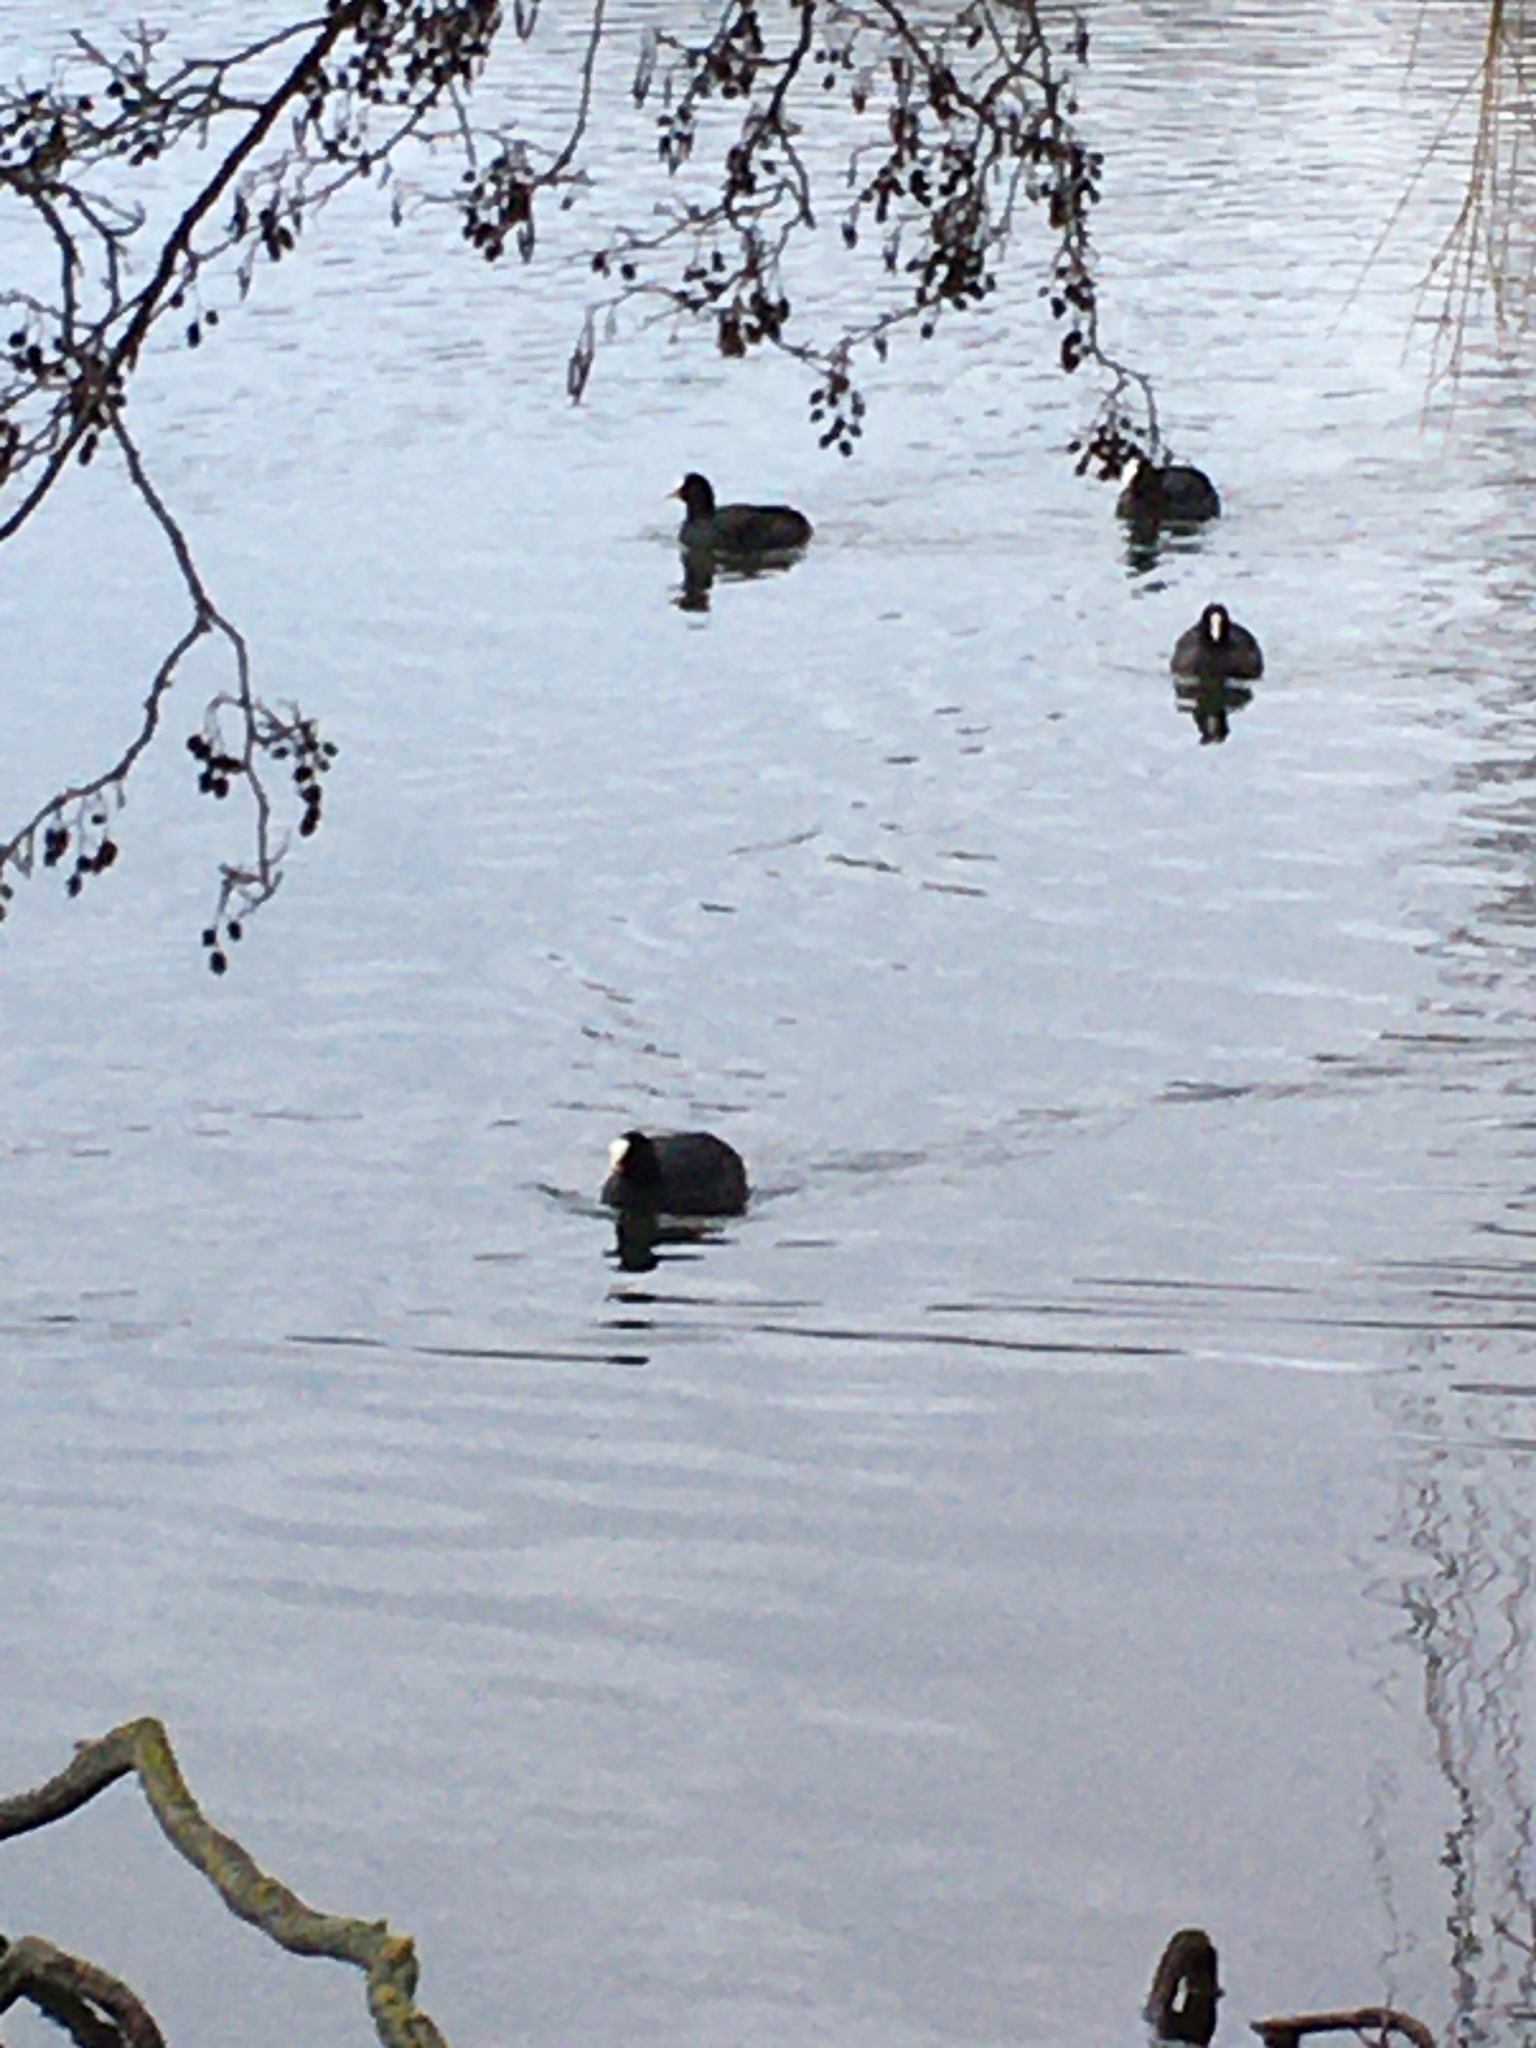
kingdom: Animalia
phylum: Chordata
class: Aves
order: Gruiformes
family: Rallidae
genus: Fulica
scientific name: Fulica atra
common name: Eurasian coot
